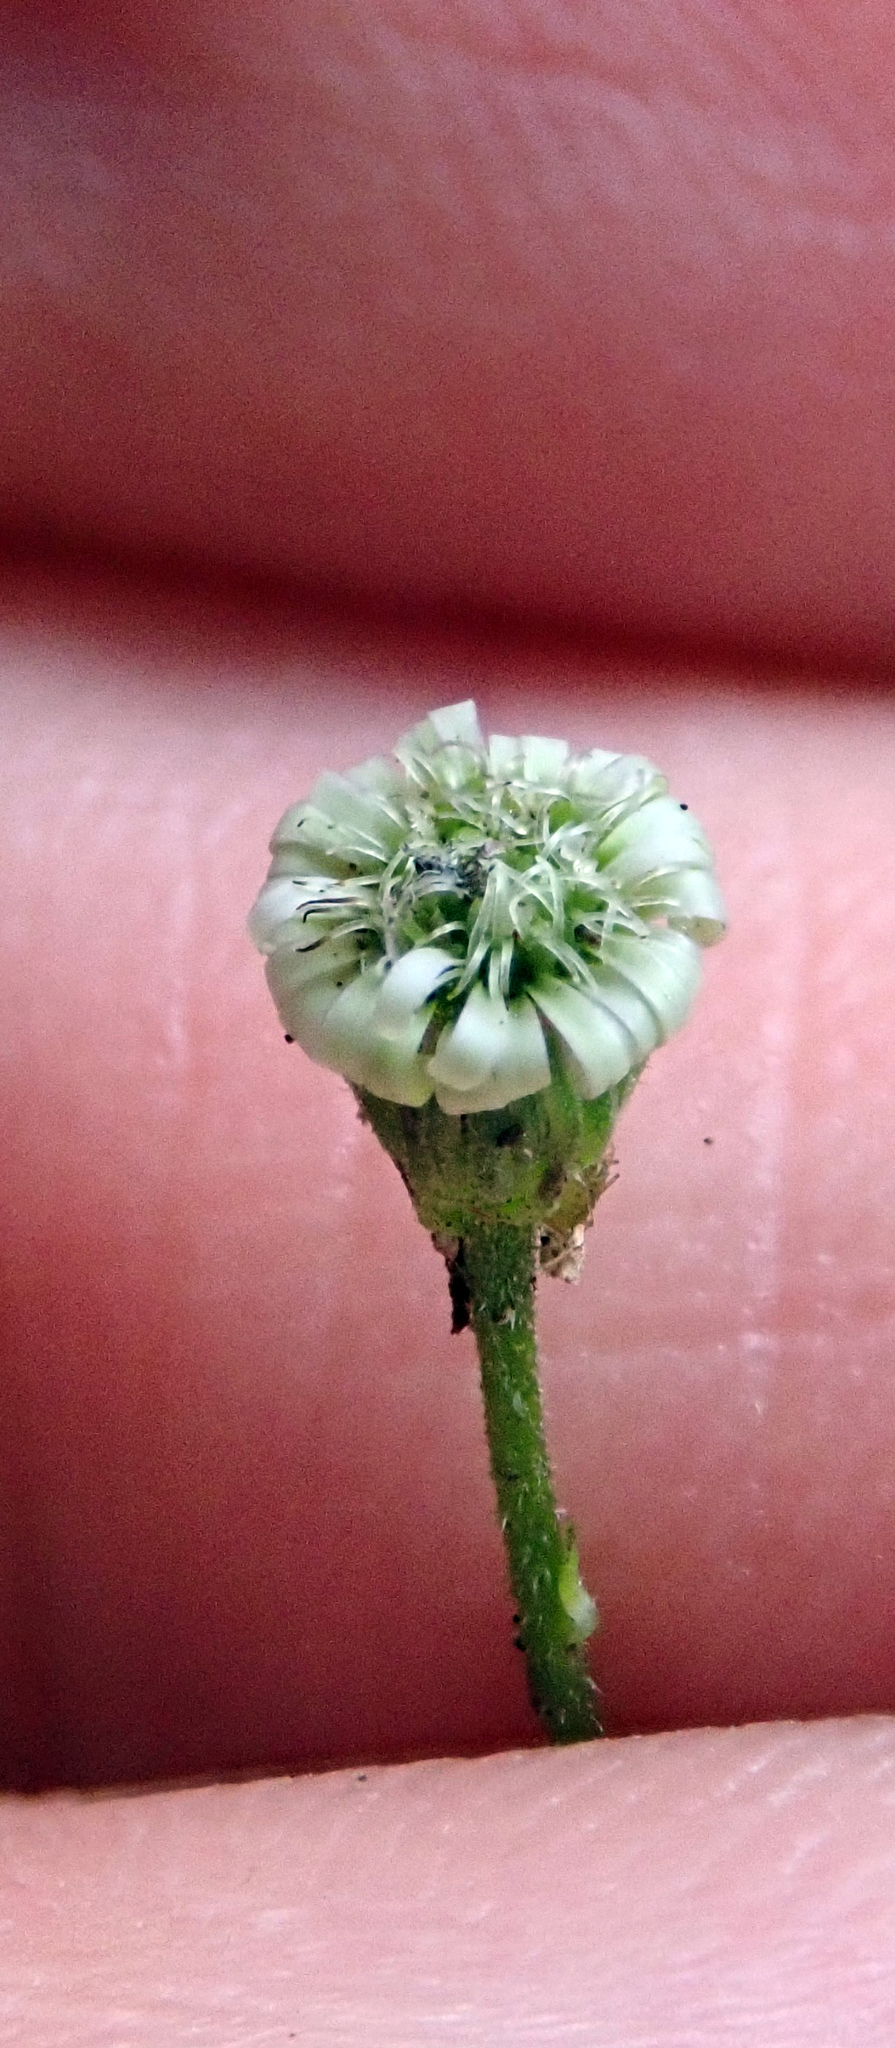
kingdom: Plantae
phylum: Tracheophyta
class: Magnoliopsida
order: Asterales
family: Asteraceae
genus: Lagenophora
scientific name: Lagenophora stipitata
